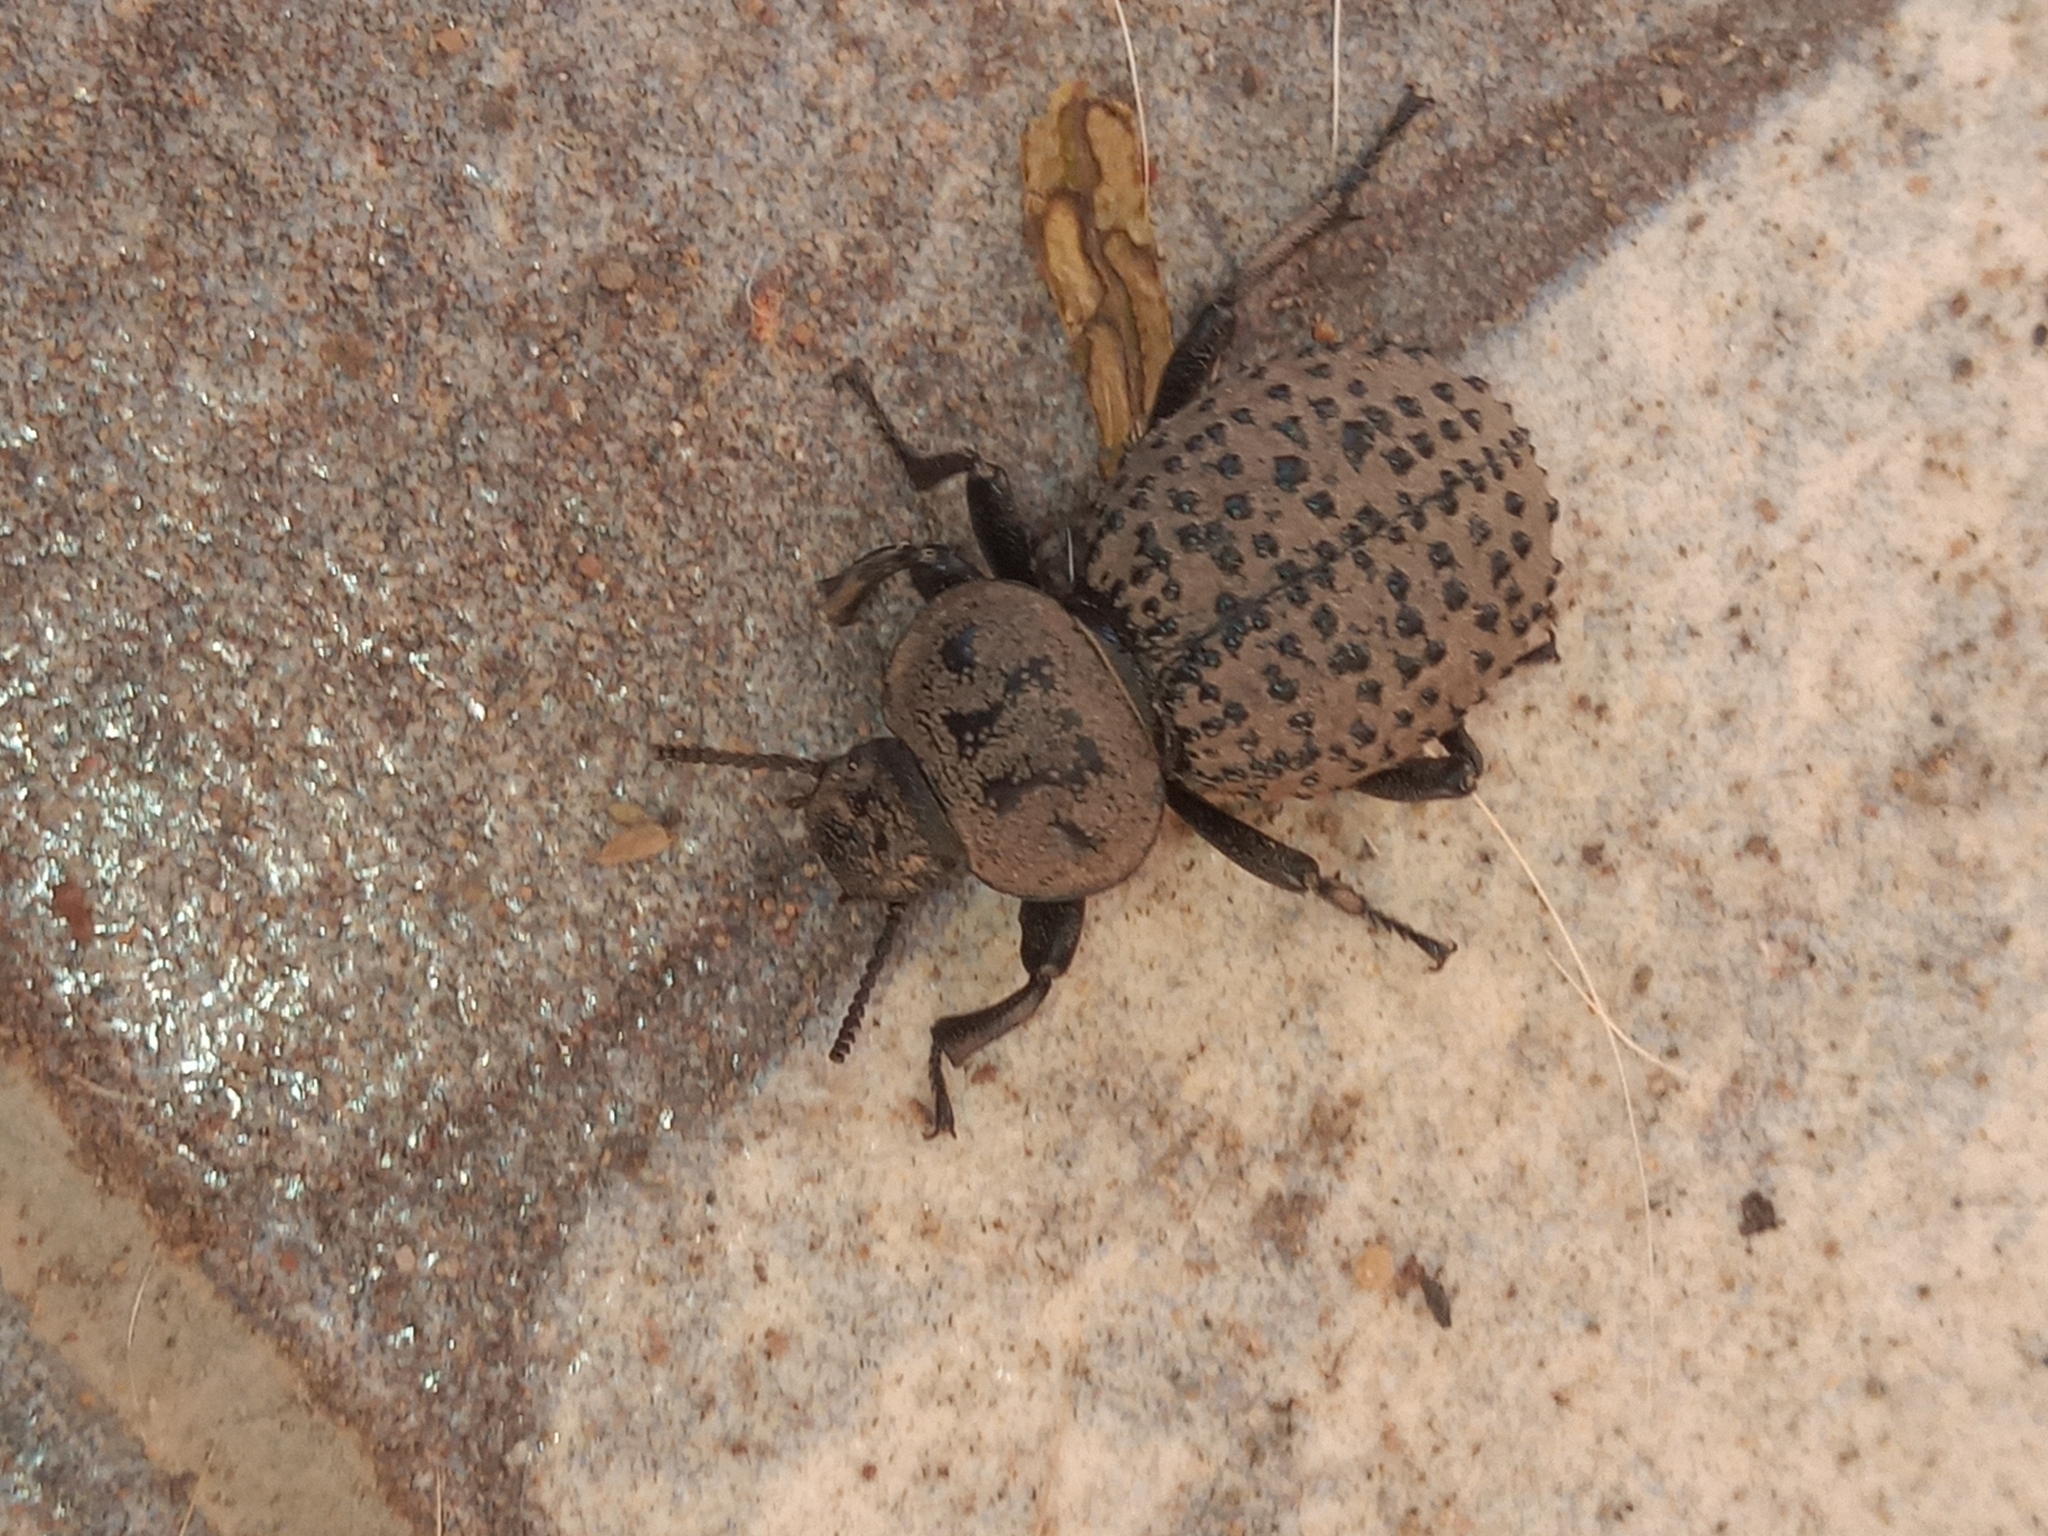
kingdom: Animalia
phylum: Arthropoda
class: Insecta
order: Coleoptera
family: Tenebrionidae
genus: Scotobius
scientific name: Scotobius pilularius
